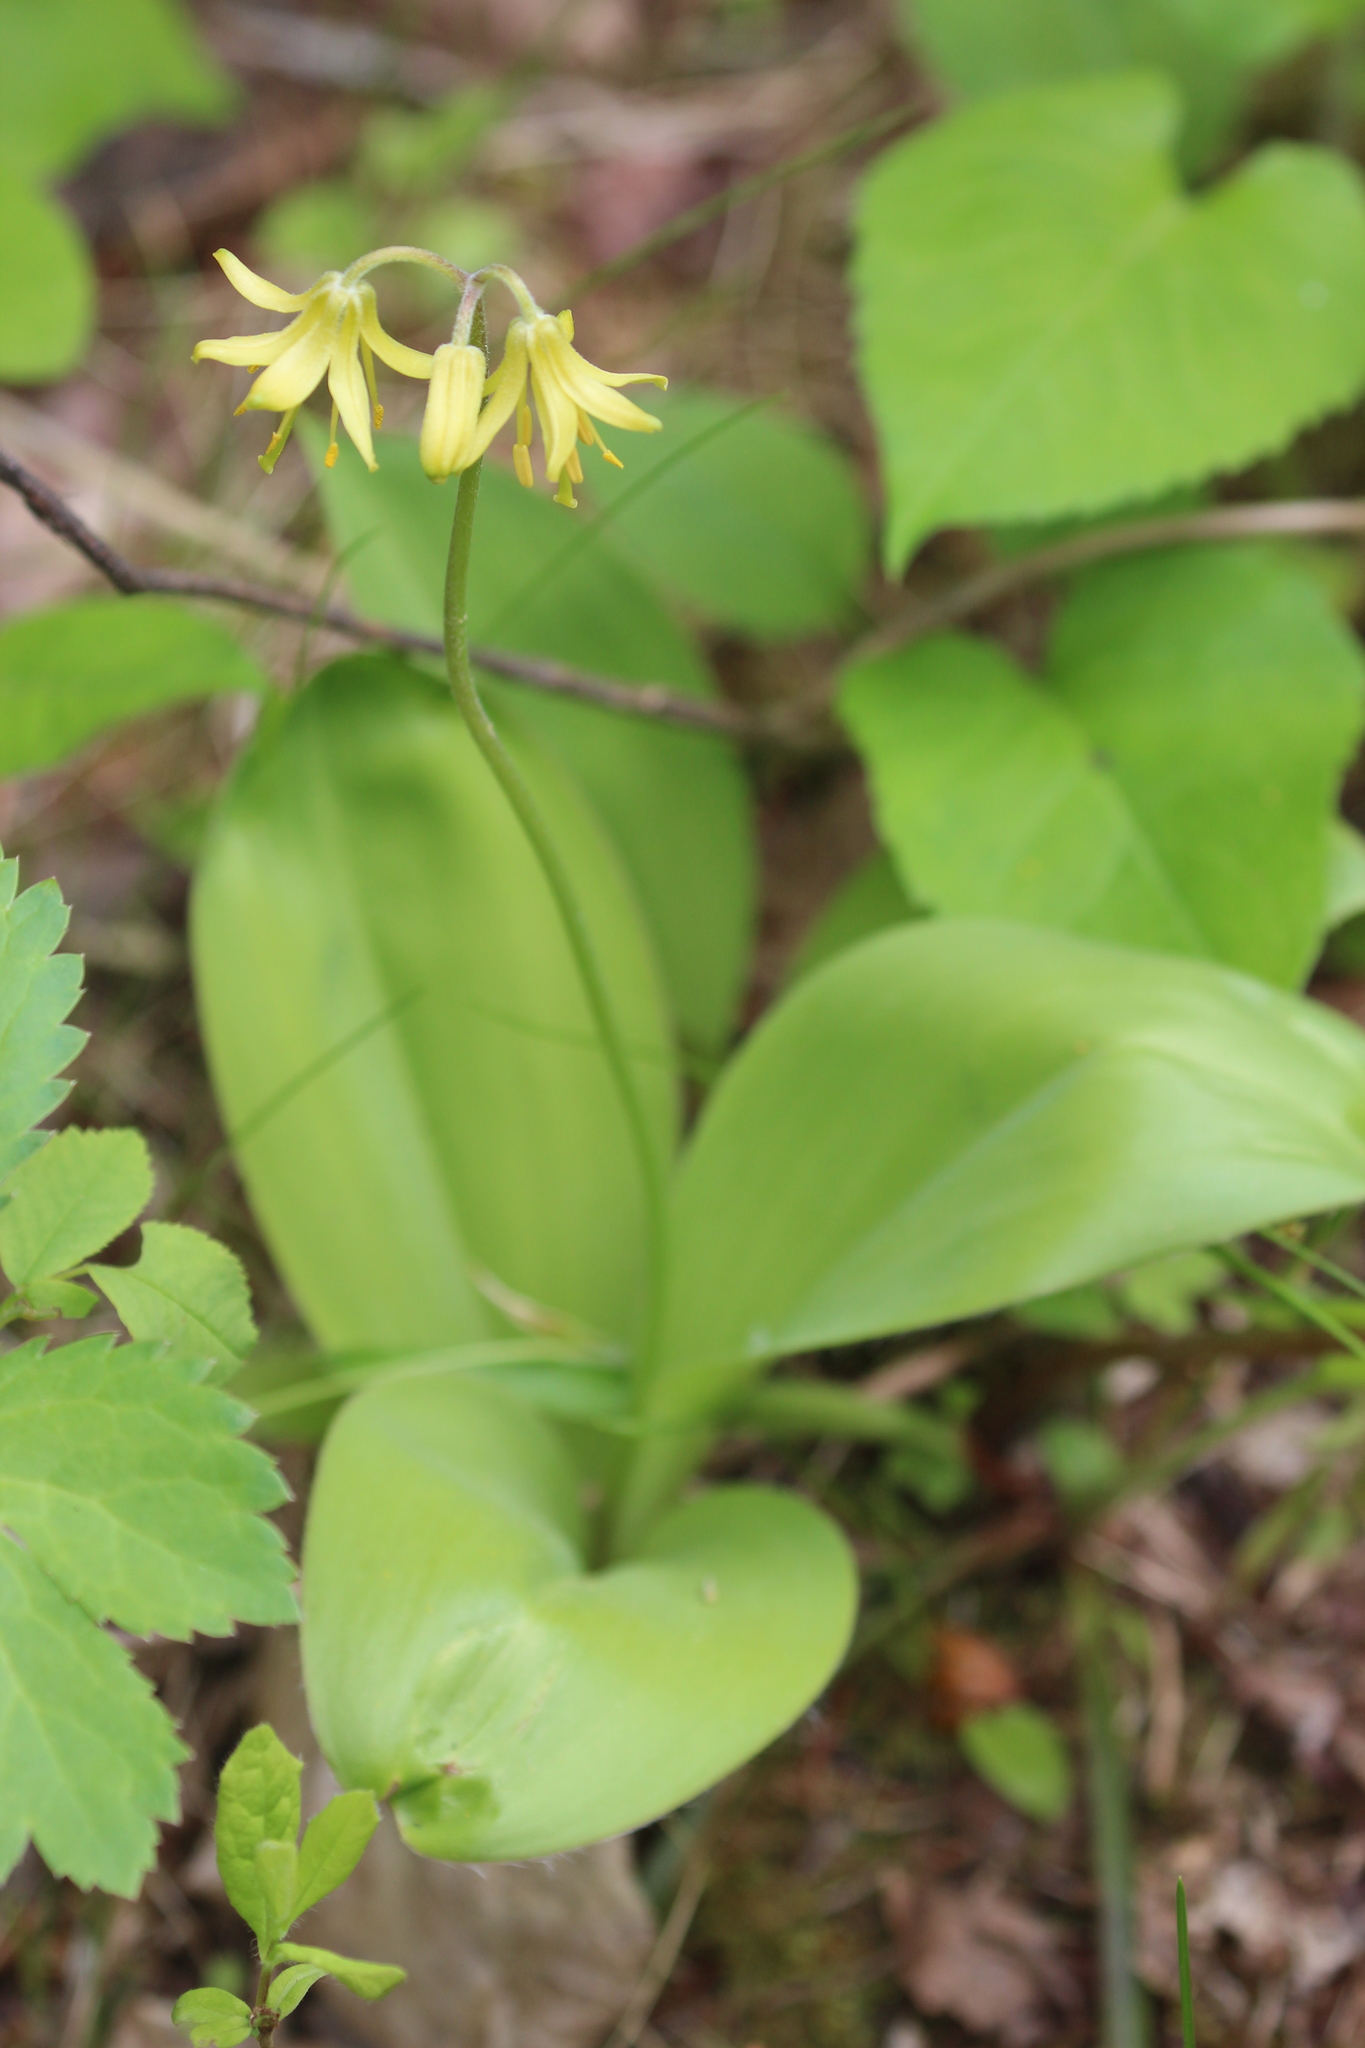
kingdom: Plantae
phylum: Tracheophyta
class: Liliopsida
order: Liliales
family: Liliaceae
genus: Clintonia
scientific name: Clintonia borealis
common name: Yellow clintonia
